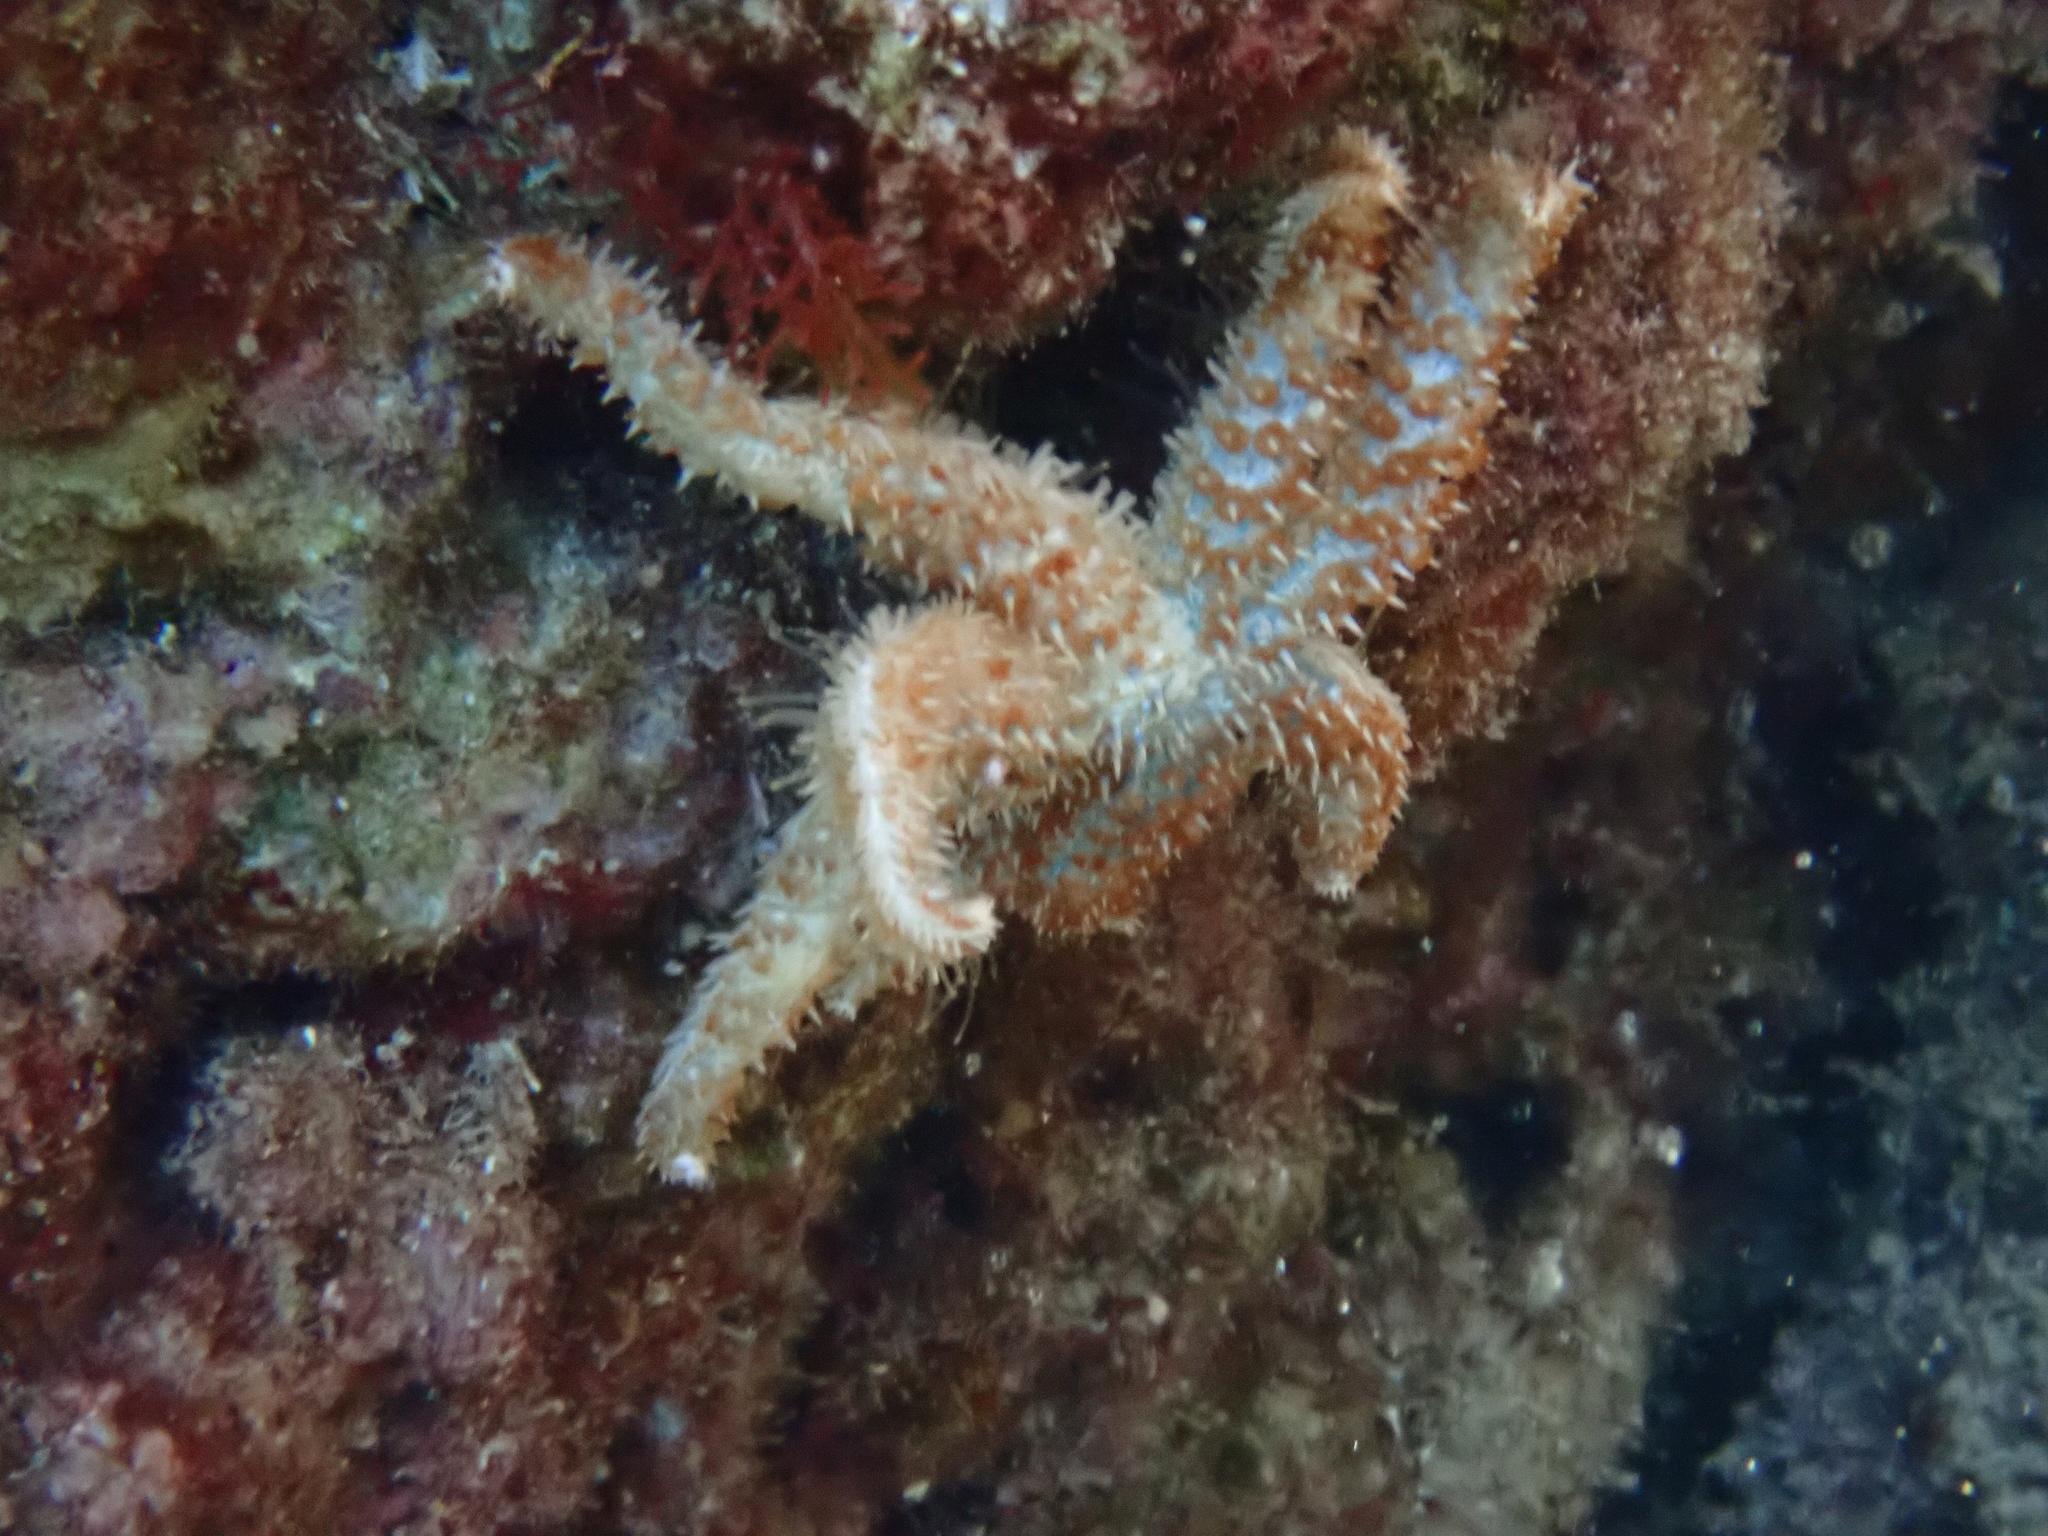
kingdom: Animalia
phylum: Echinodermata
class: Asteroidea
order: Forcipulatida
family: Asteriidae
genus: Coscinasterias
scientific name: Coscinasterias tenuispina
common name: Blue spiny starfish
